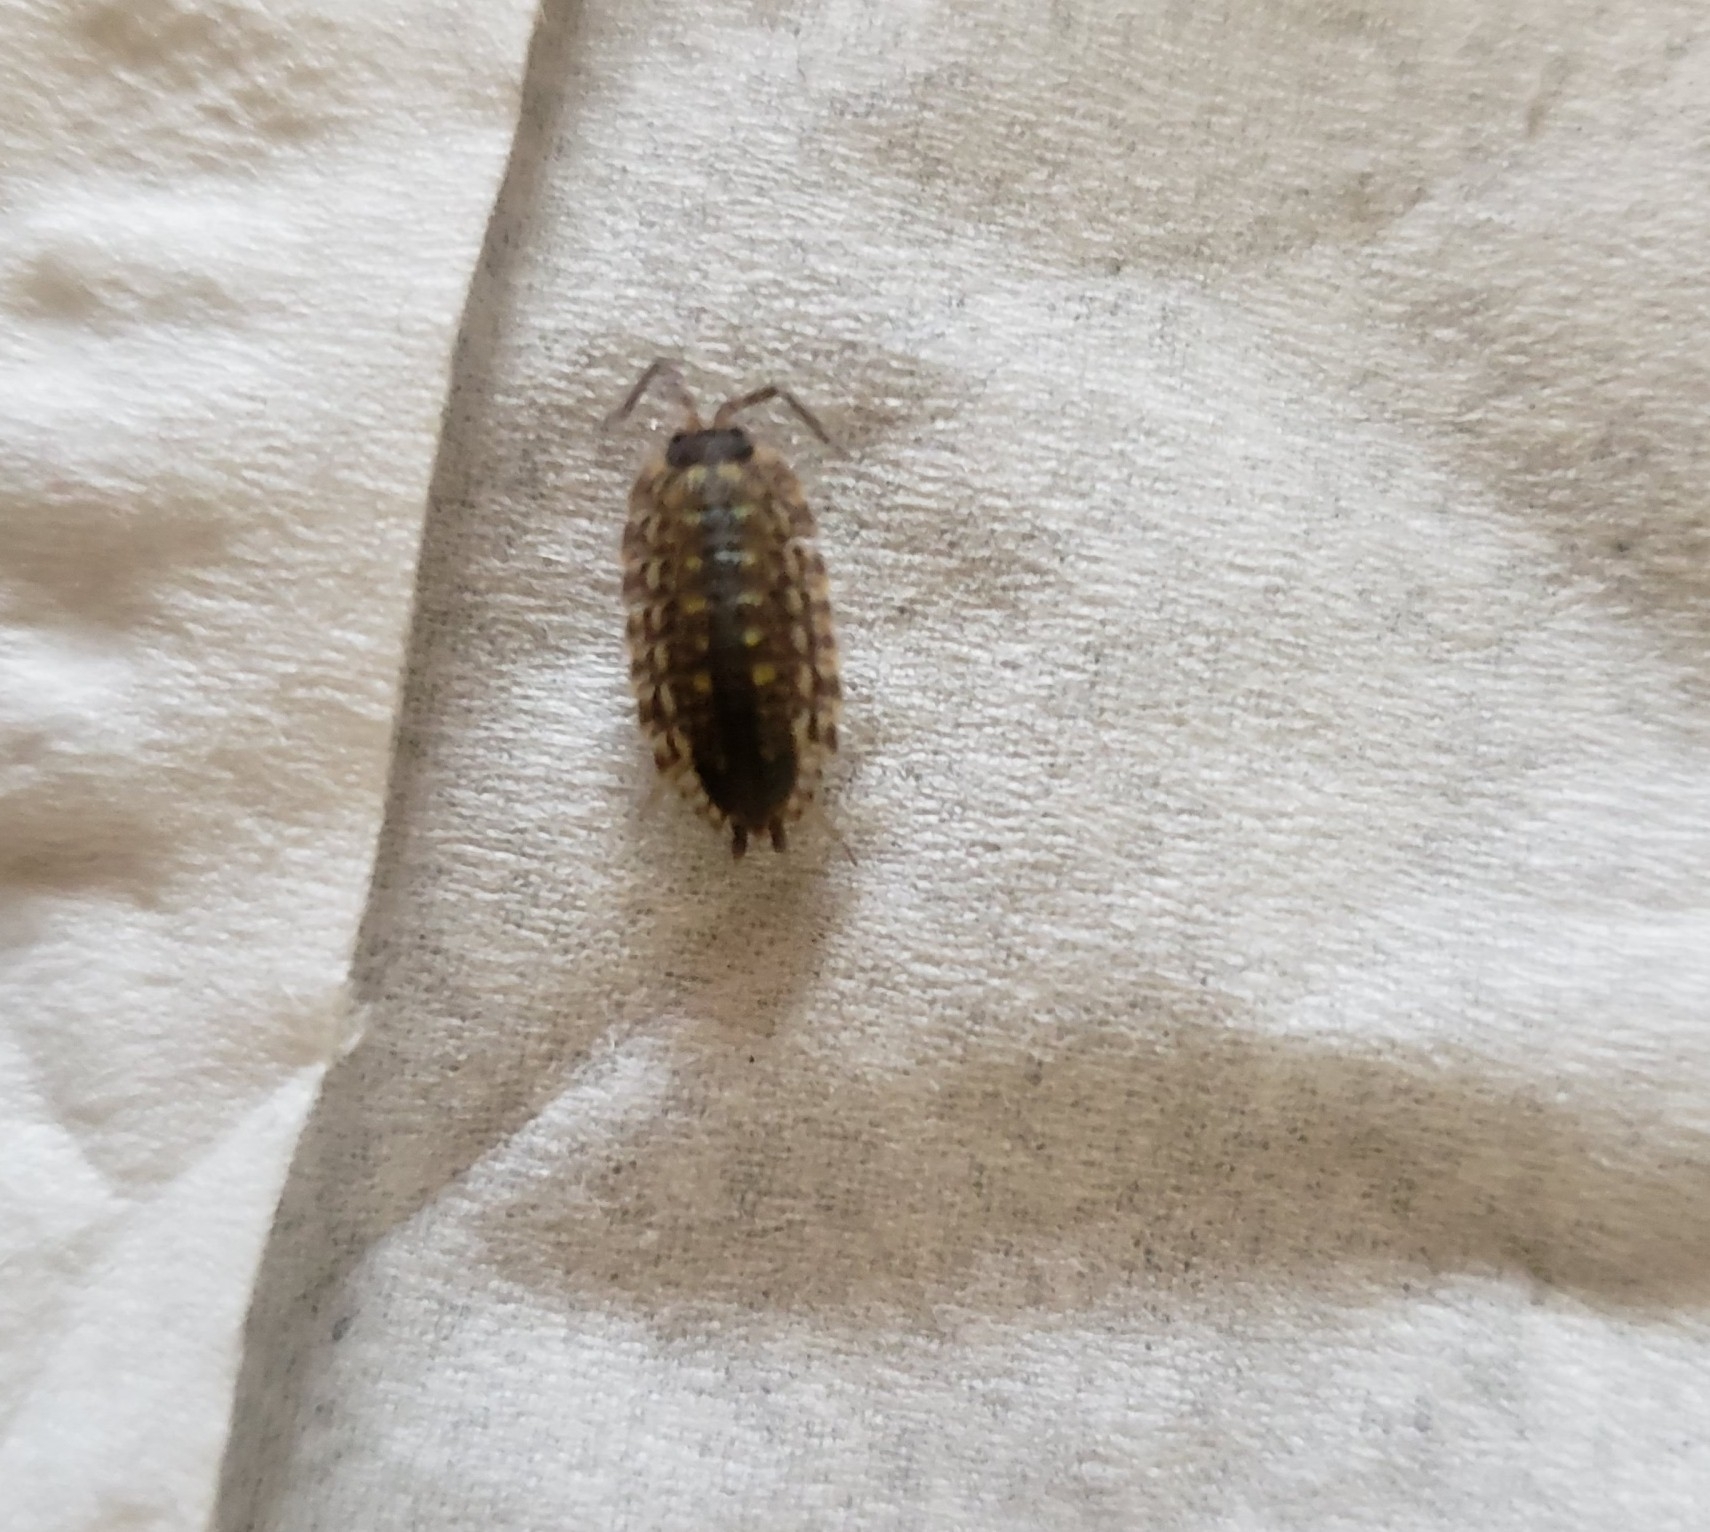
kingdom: Animalia
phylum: Arthropoda
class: Malacostraca
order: Isopoda
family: Porcellionidae
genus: Porcellio
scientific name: Porcellio spinicornis
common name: Painted woodlouse
